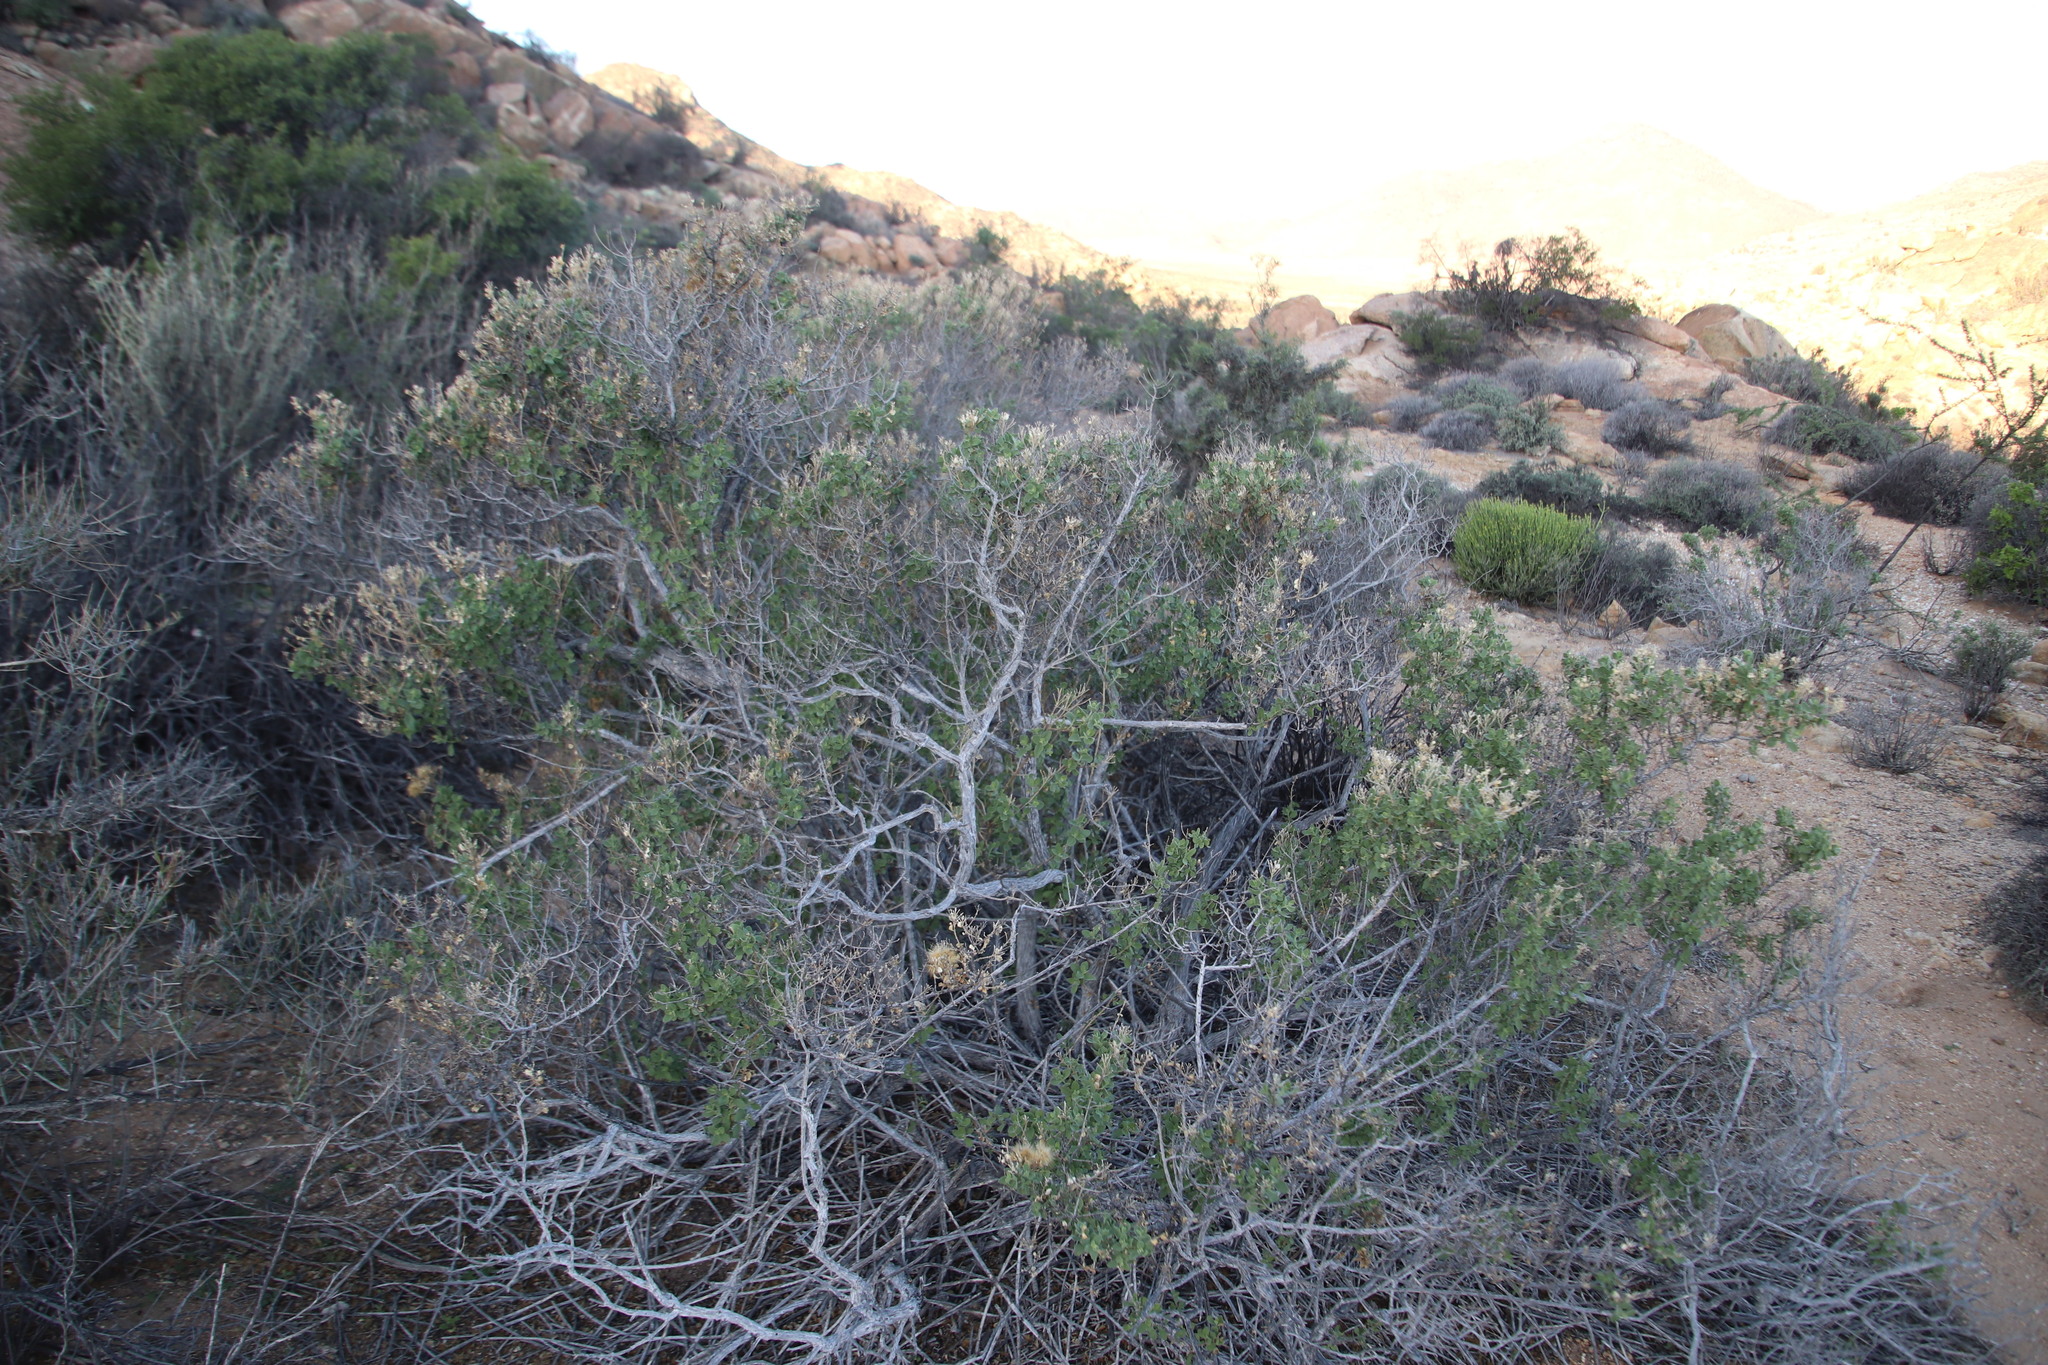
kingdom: Plantae
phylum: Tracheophyta
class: Magnoliopsida
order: Asterales
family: Asteraceae
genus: Pteronia
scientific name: Pteronia divaricata
